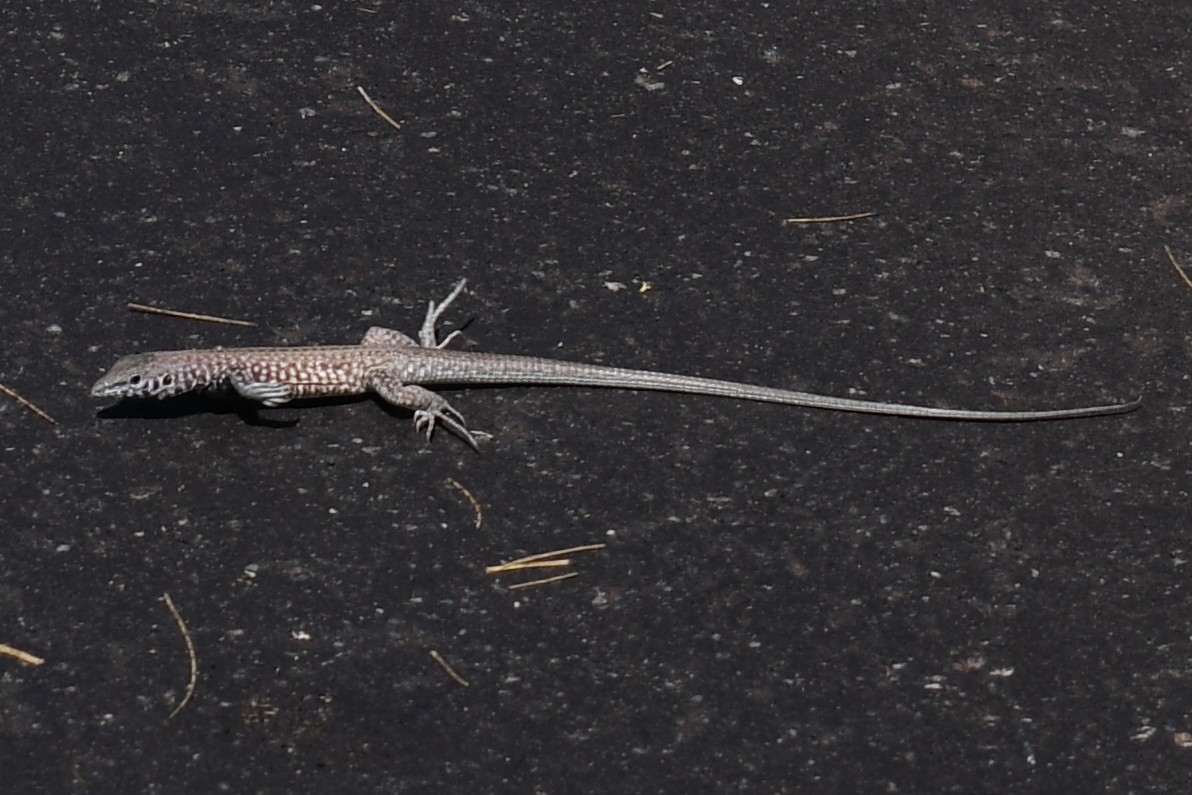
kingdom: Animalia
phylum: Chordata
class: Squamata
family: Teiidae
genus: Aspidoscelis
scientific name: Aspidoscelis tigris
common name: Tiger whiptail
